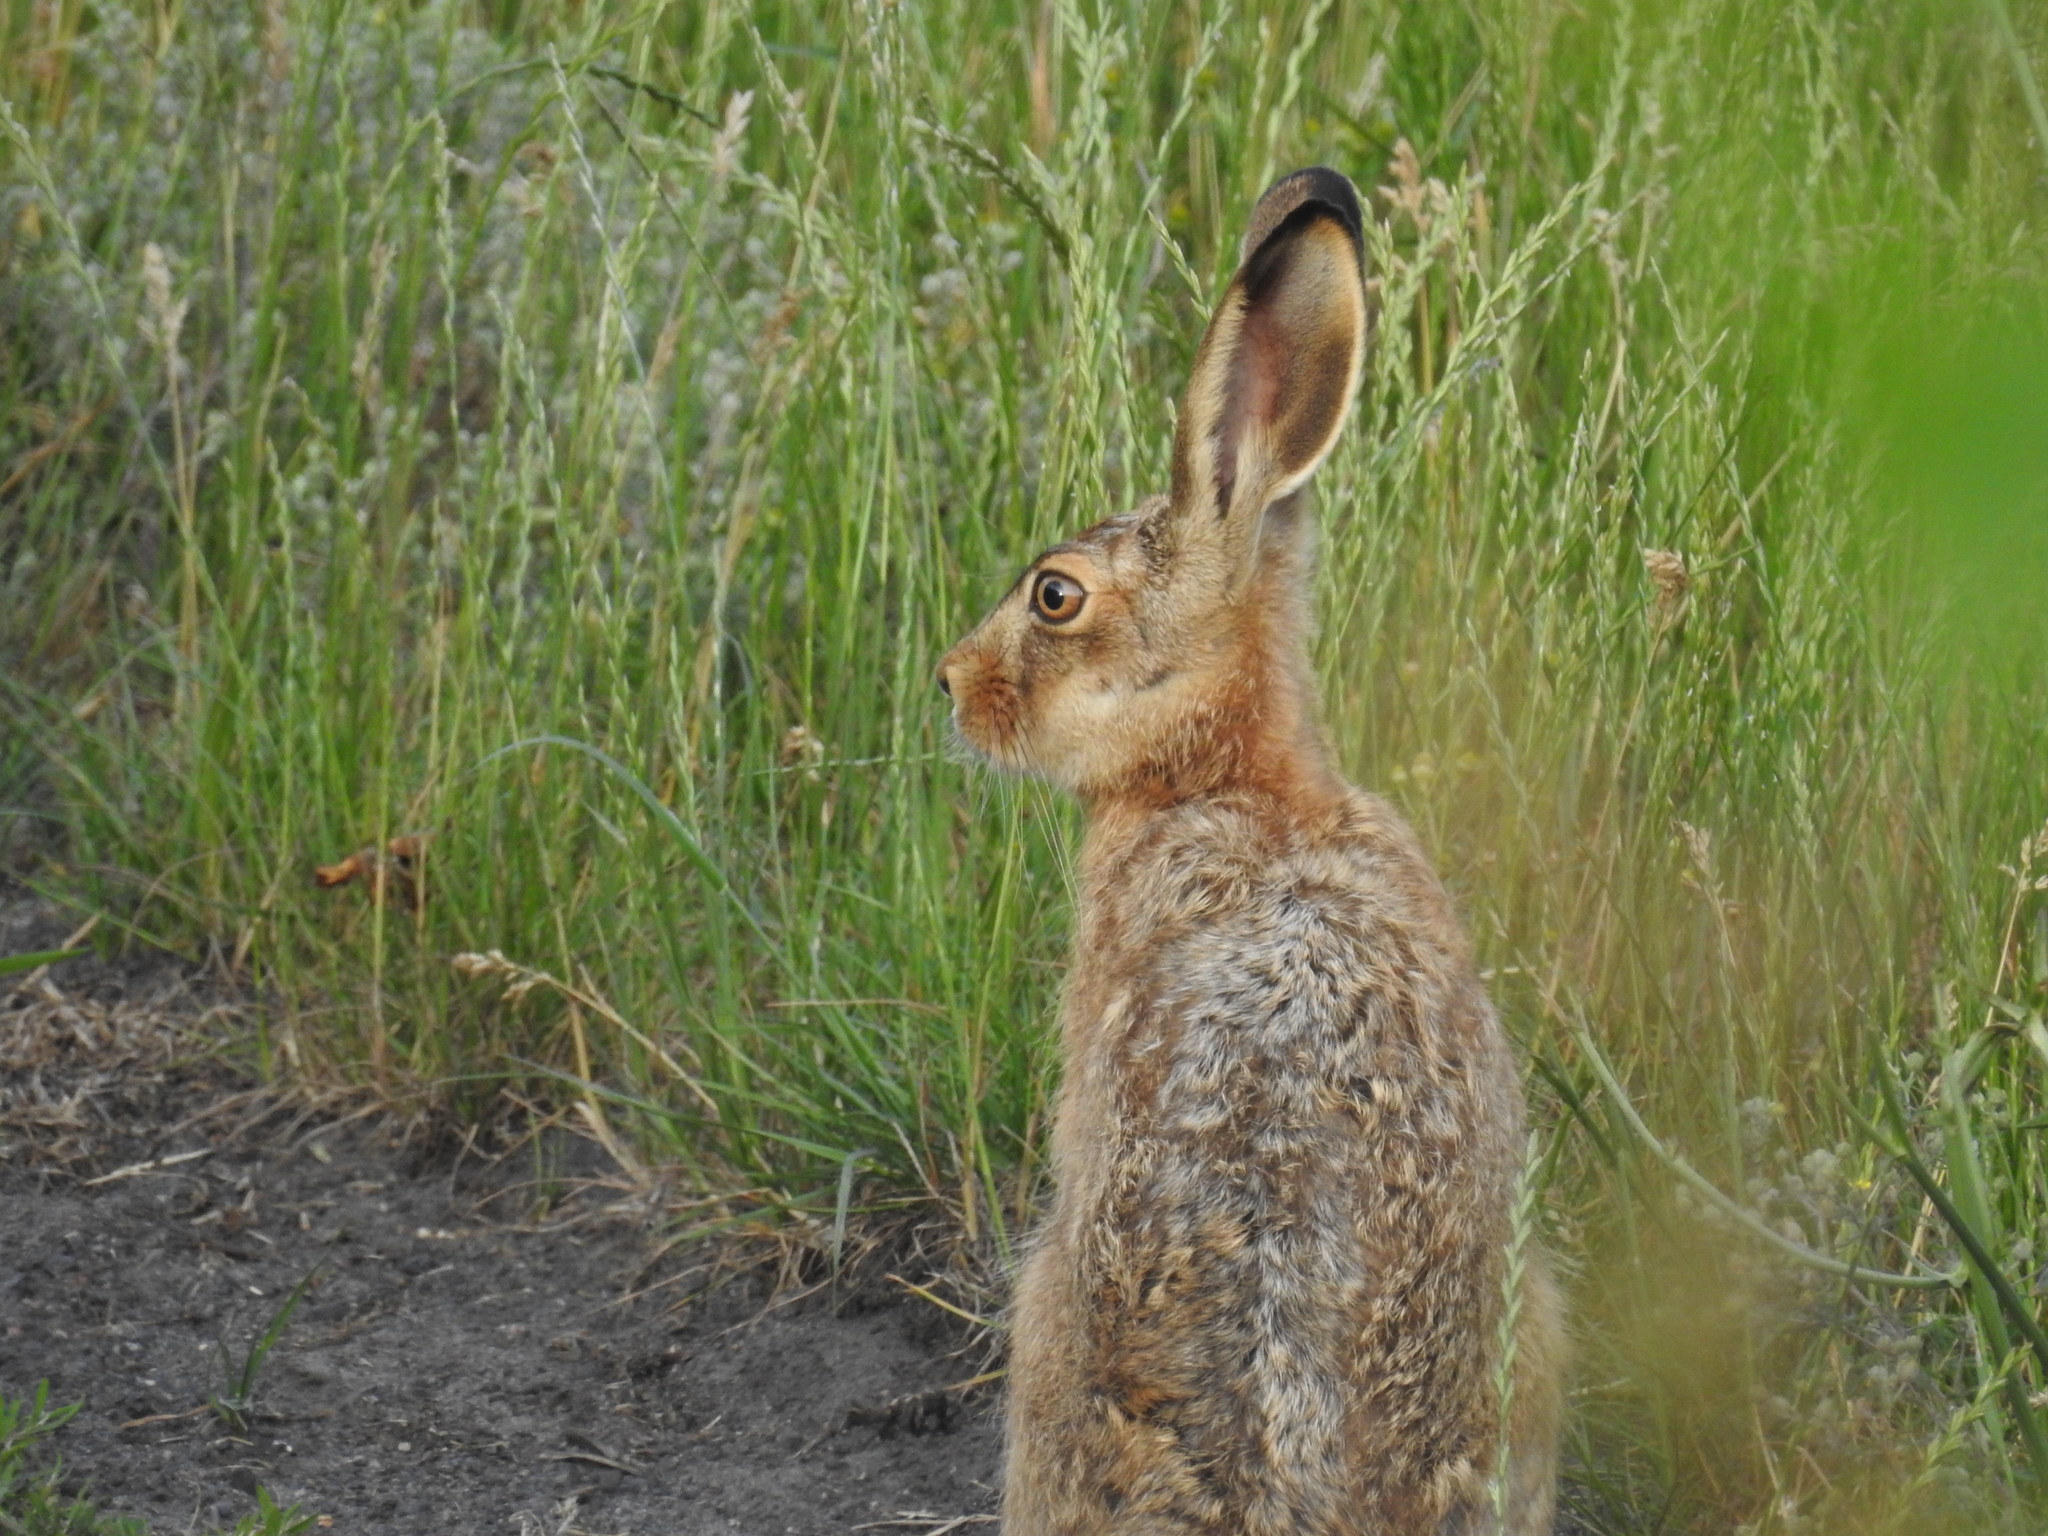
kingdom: Animalia
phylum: Chordata
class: Mammalia
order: Lagomorpha
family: Leporidae
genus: Lepus
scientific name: Lepus europaeus
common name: European hare
